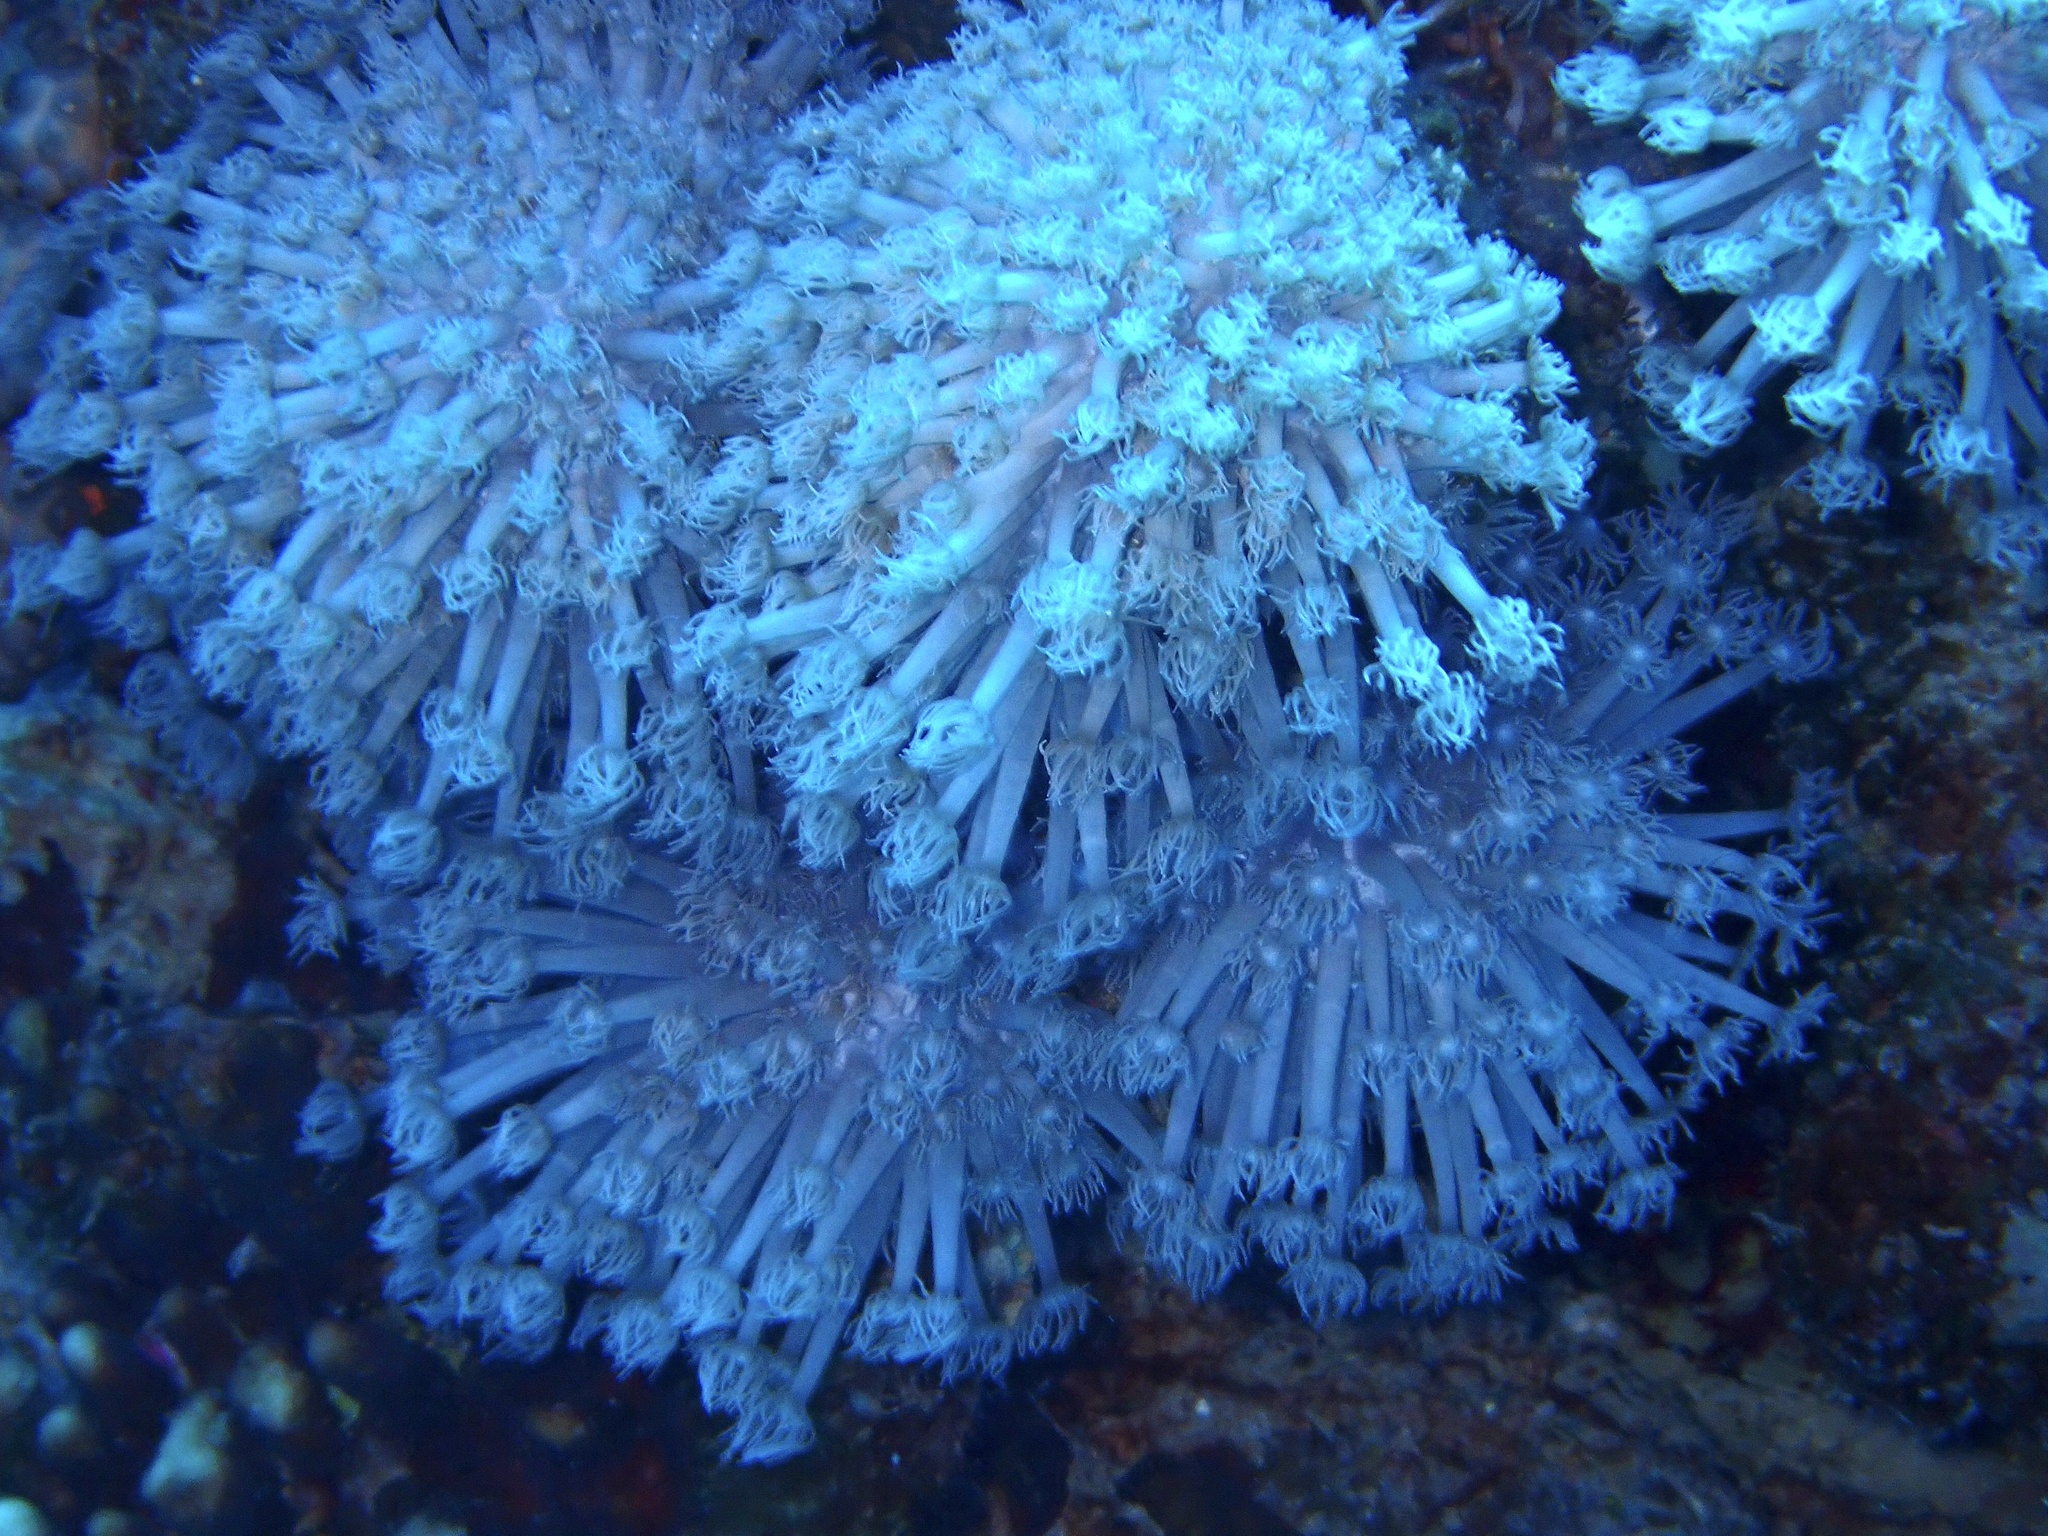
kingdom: Animalia
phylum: Cnidaria
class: Anthozoa
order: Scleractinia
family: Poritidae
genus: Goniopora
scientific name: Goniopora
